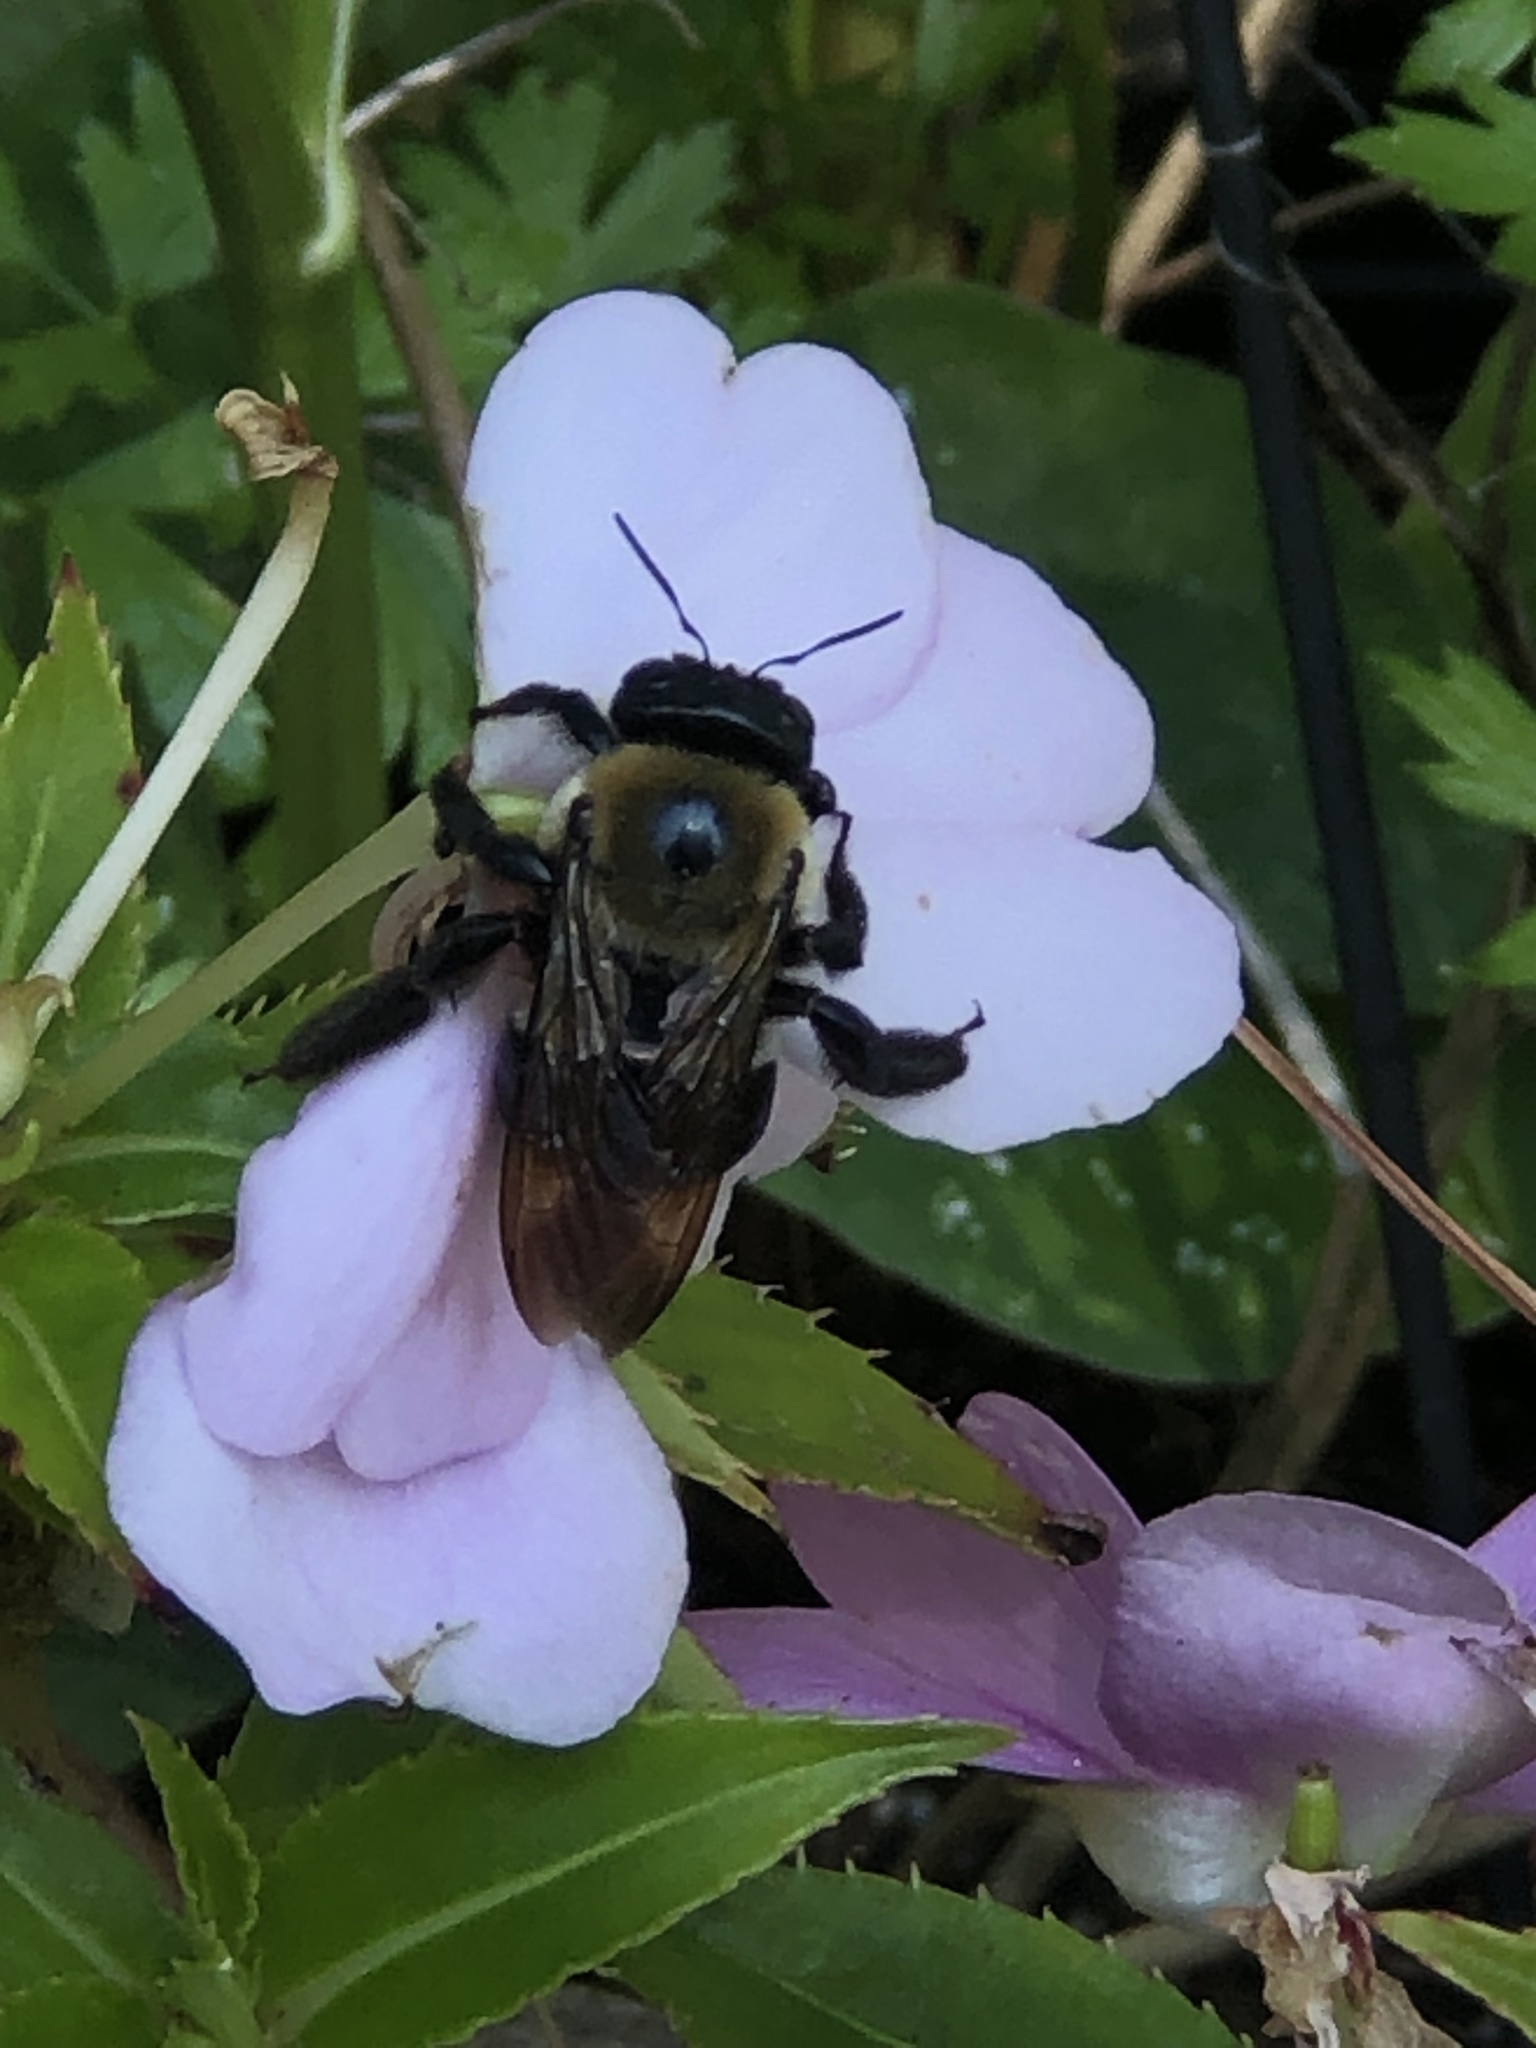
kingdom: Animalia
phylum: Arthropoda
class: Insecta
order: Hymenoptera
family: Apidae
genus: Xylocopa
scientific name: Xylocopa virginica
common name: Carpenter bee
